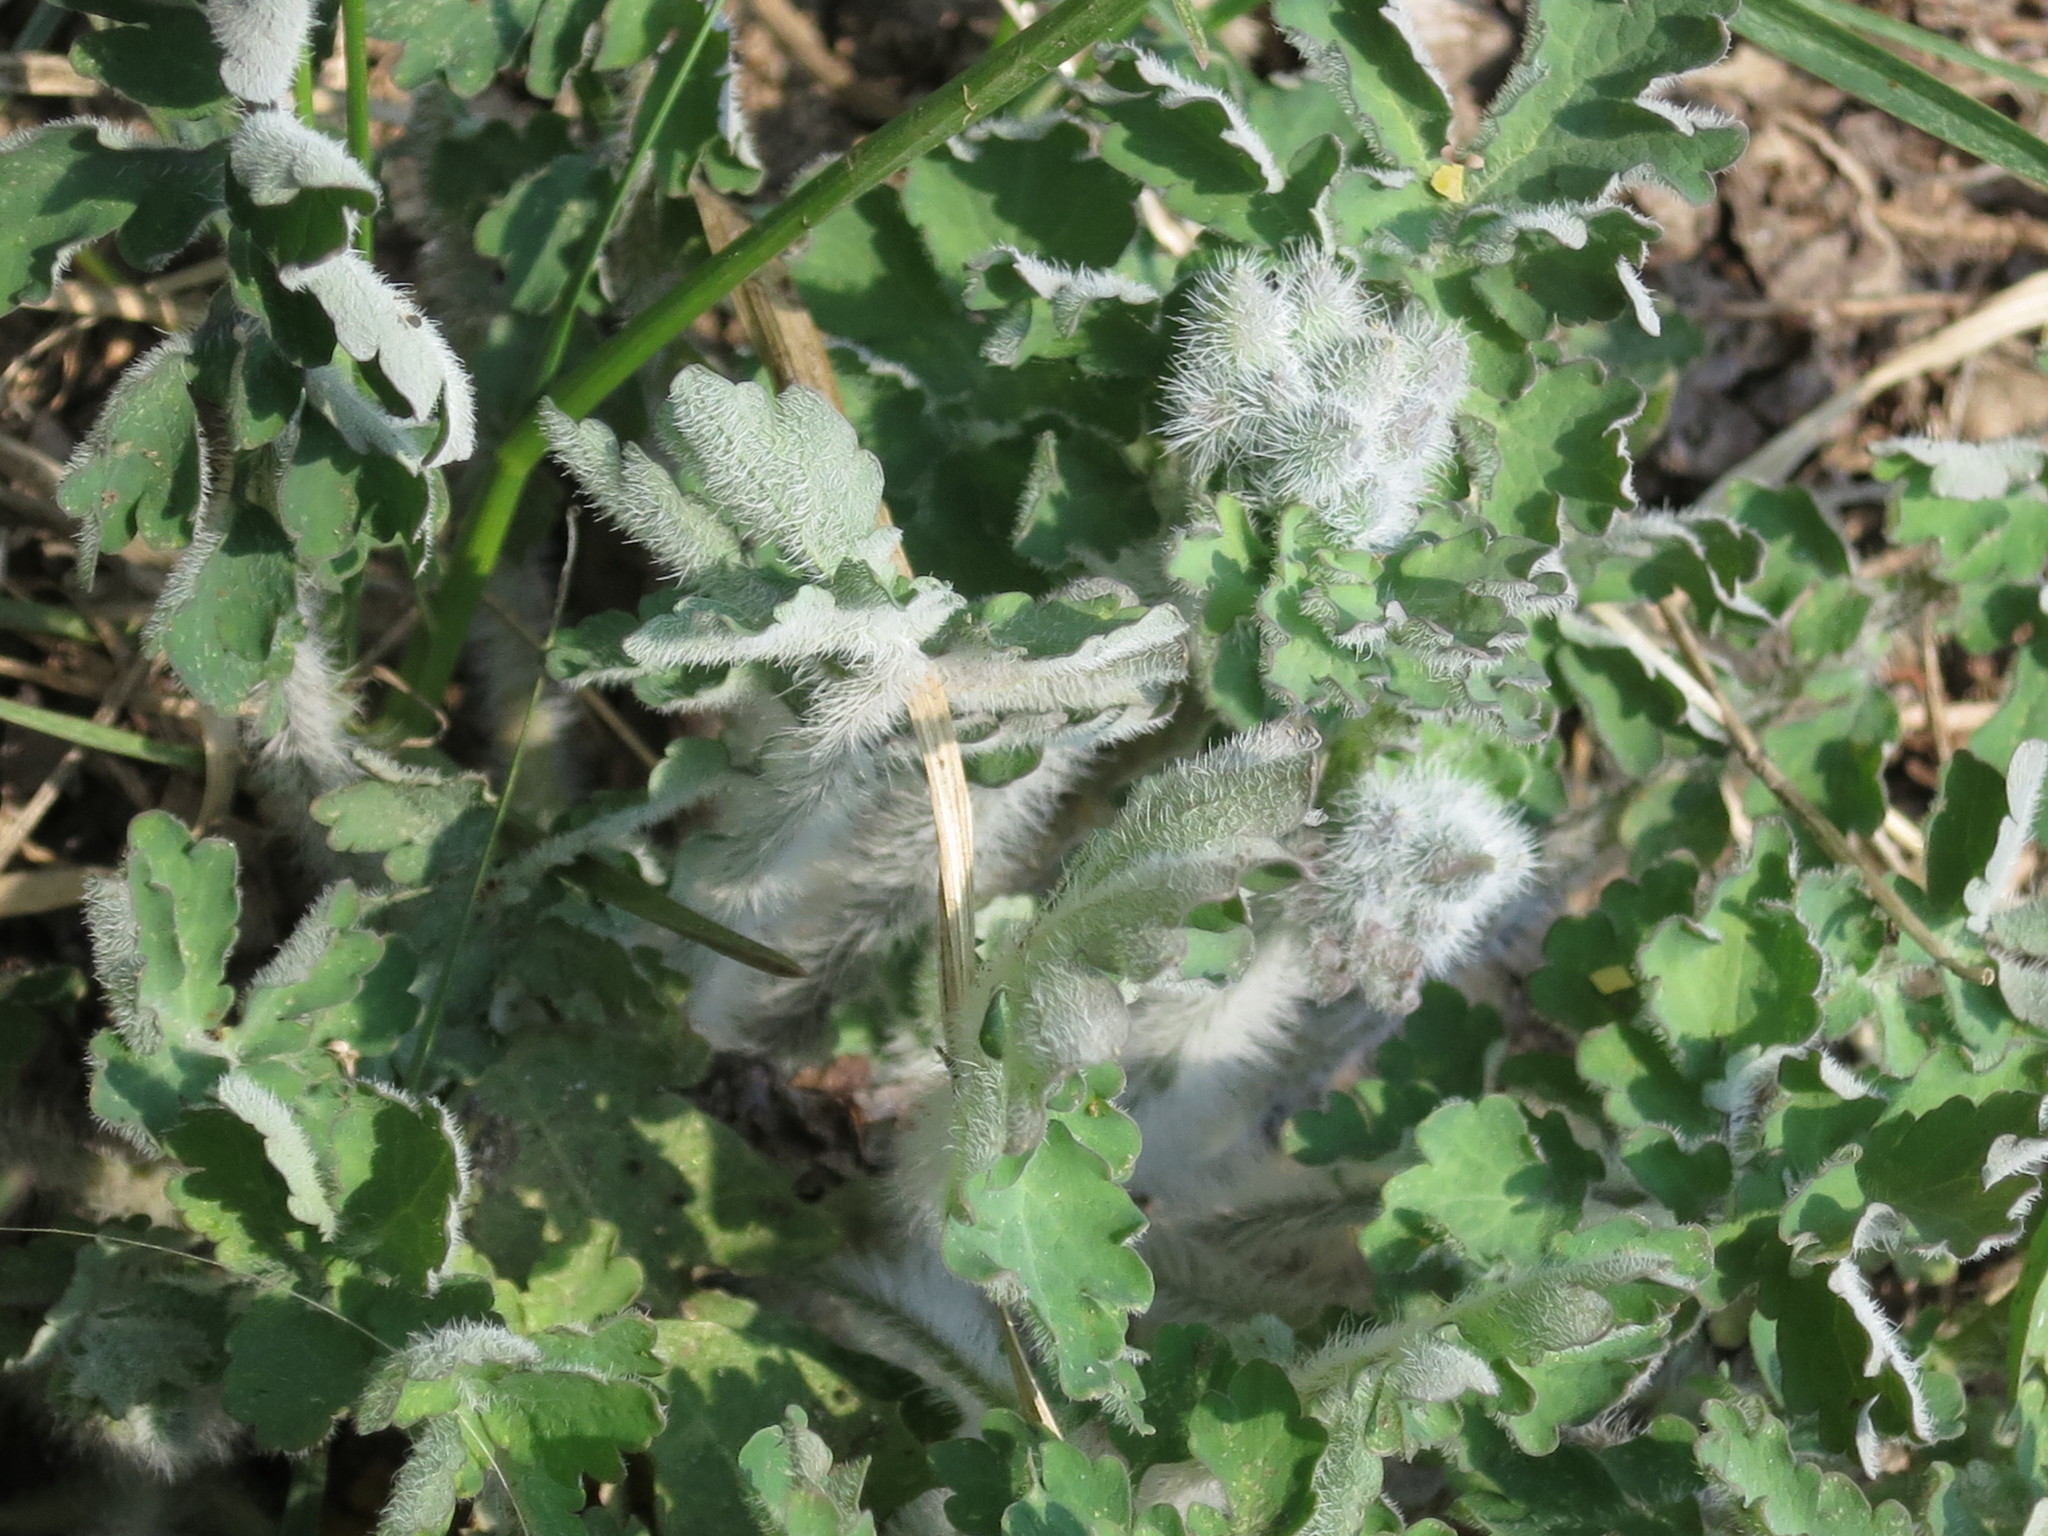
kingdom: Plantae
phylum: Tracheophyta
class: Magnoliopsida
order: Ranunculales
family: Papaveraceae
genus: Chelidonium
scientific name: Chelidonium majus
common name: Greater celandine
